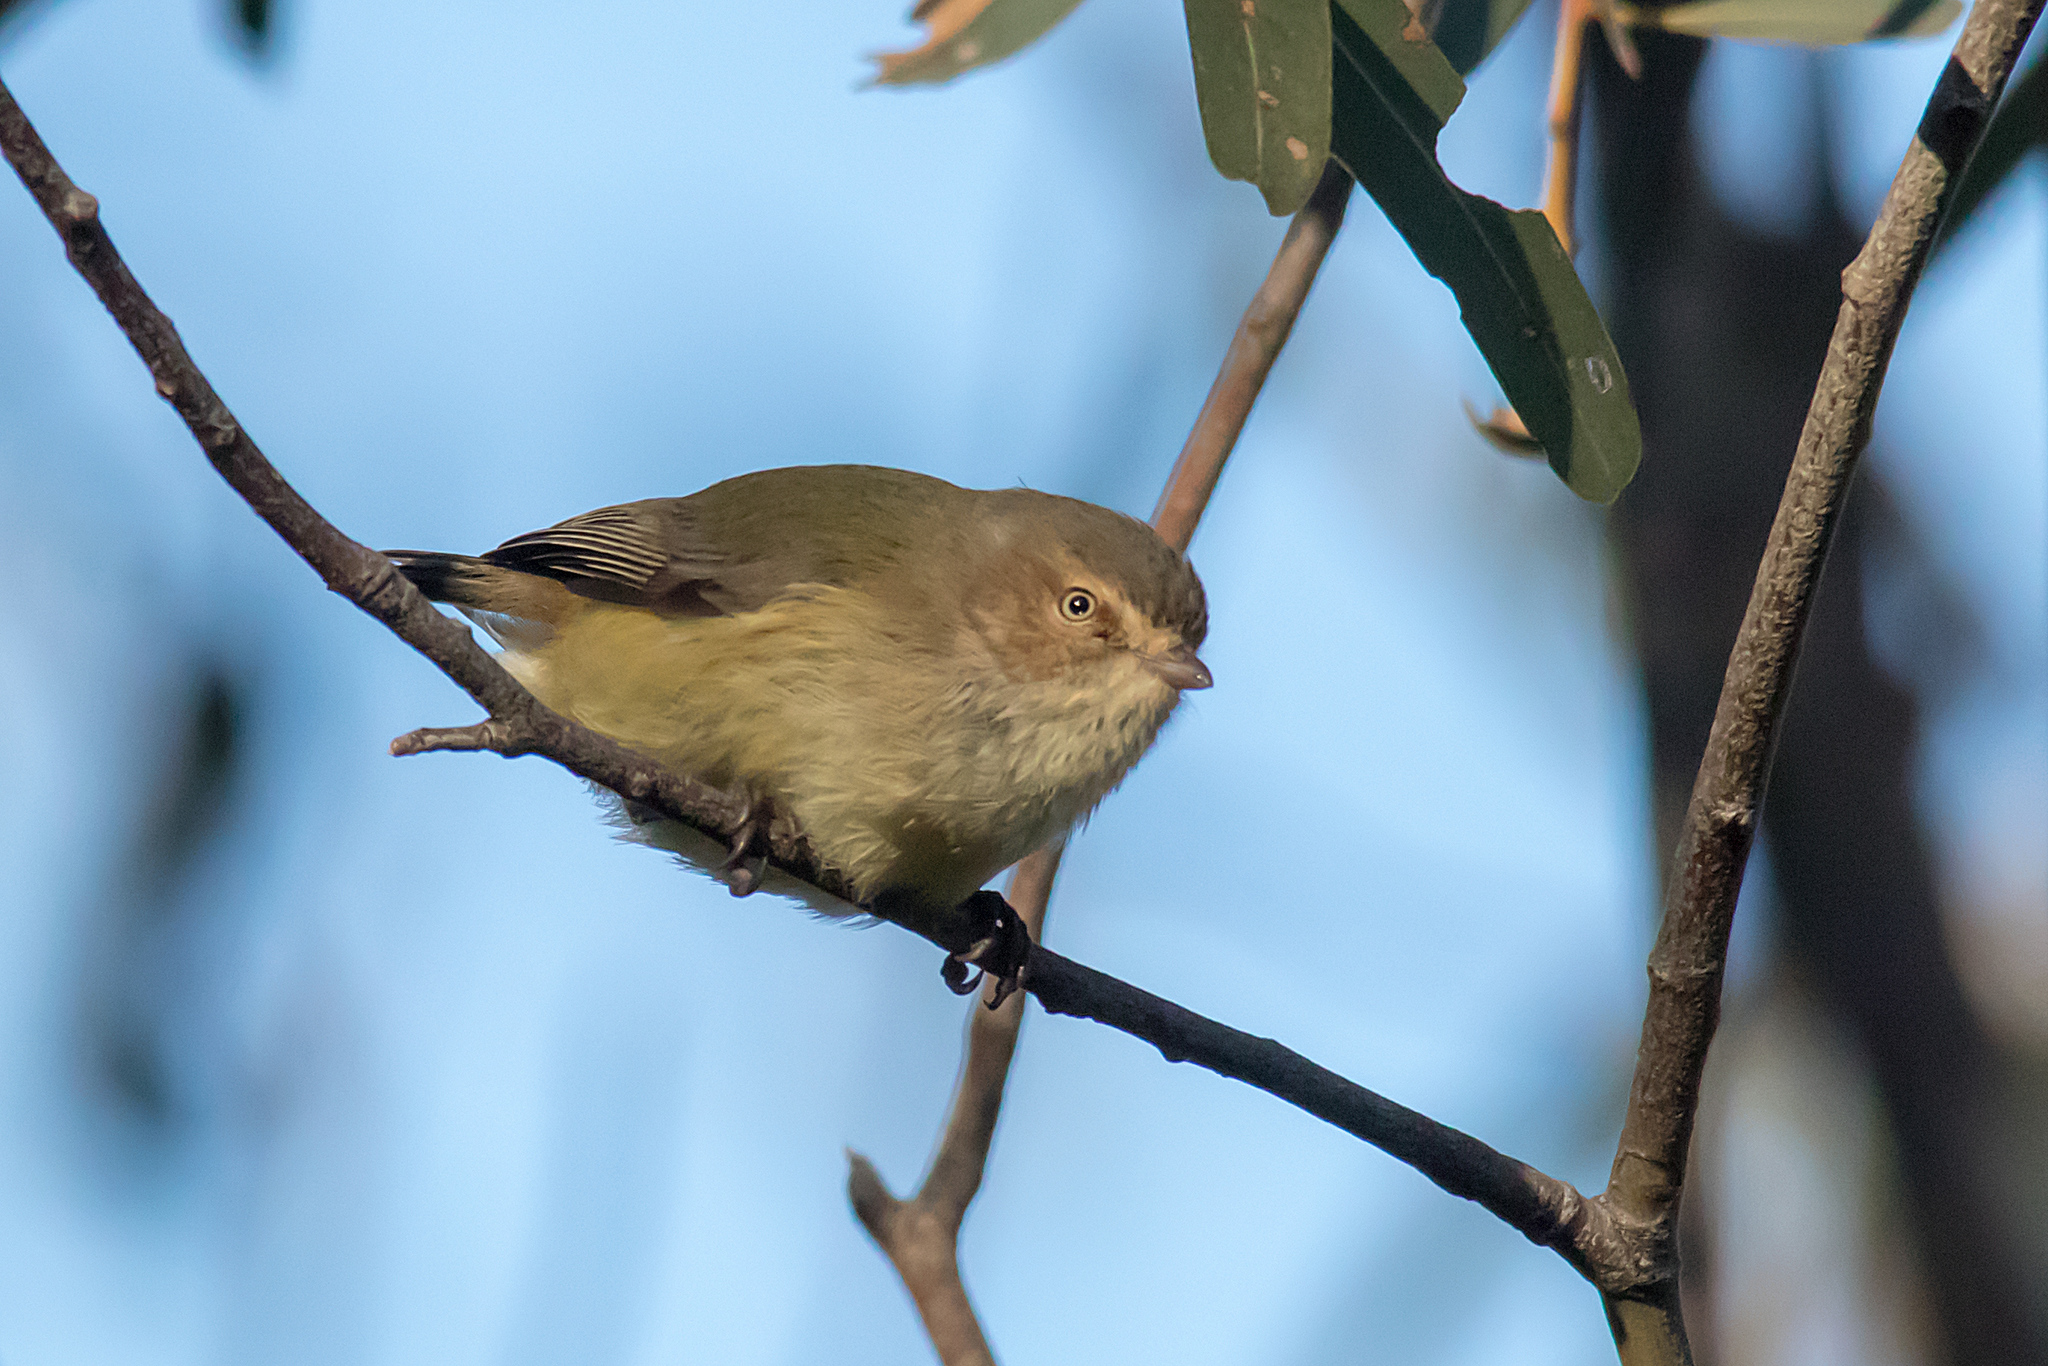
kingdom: Animalia
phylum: Chordata
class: Aves
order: Passeriformes
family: Acanthizidae
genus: Smicrornis
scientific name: Smicrornis brevirostris
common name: Weebill
